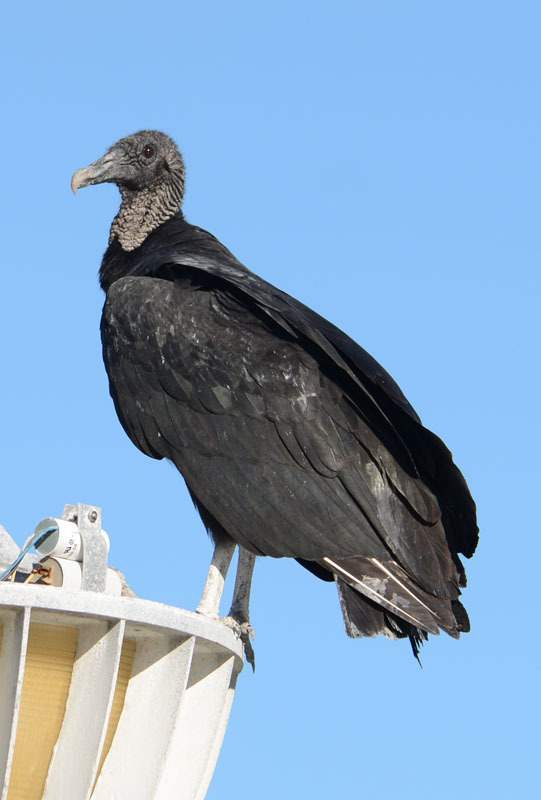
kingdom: Animalia
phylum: Chordata
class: Aves
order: Accipitriformes
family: Cathartidae
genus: Coragyps
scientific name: Coragyps atratus
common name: Black vulture
